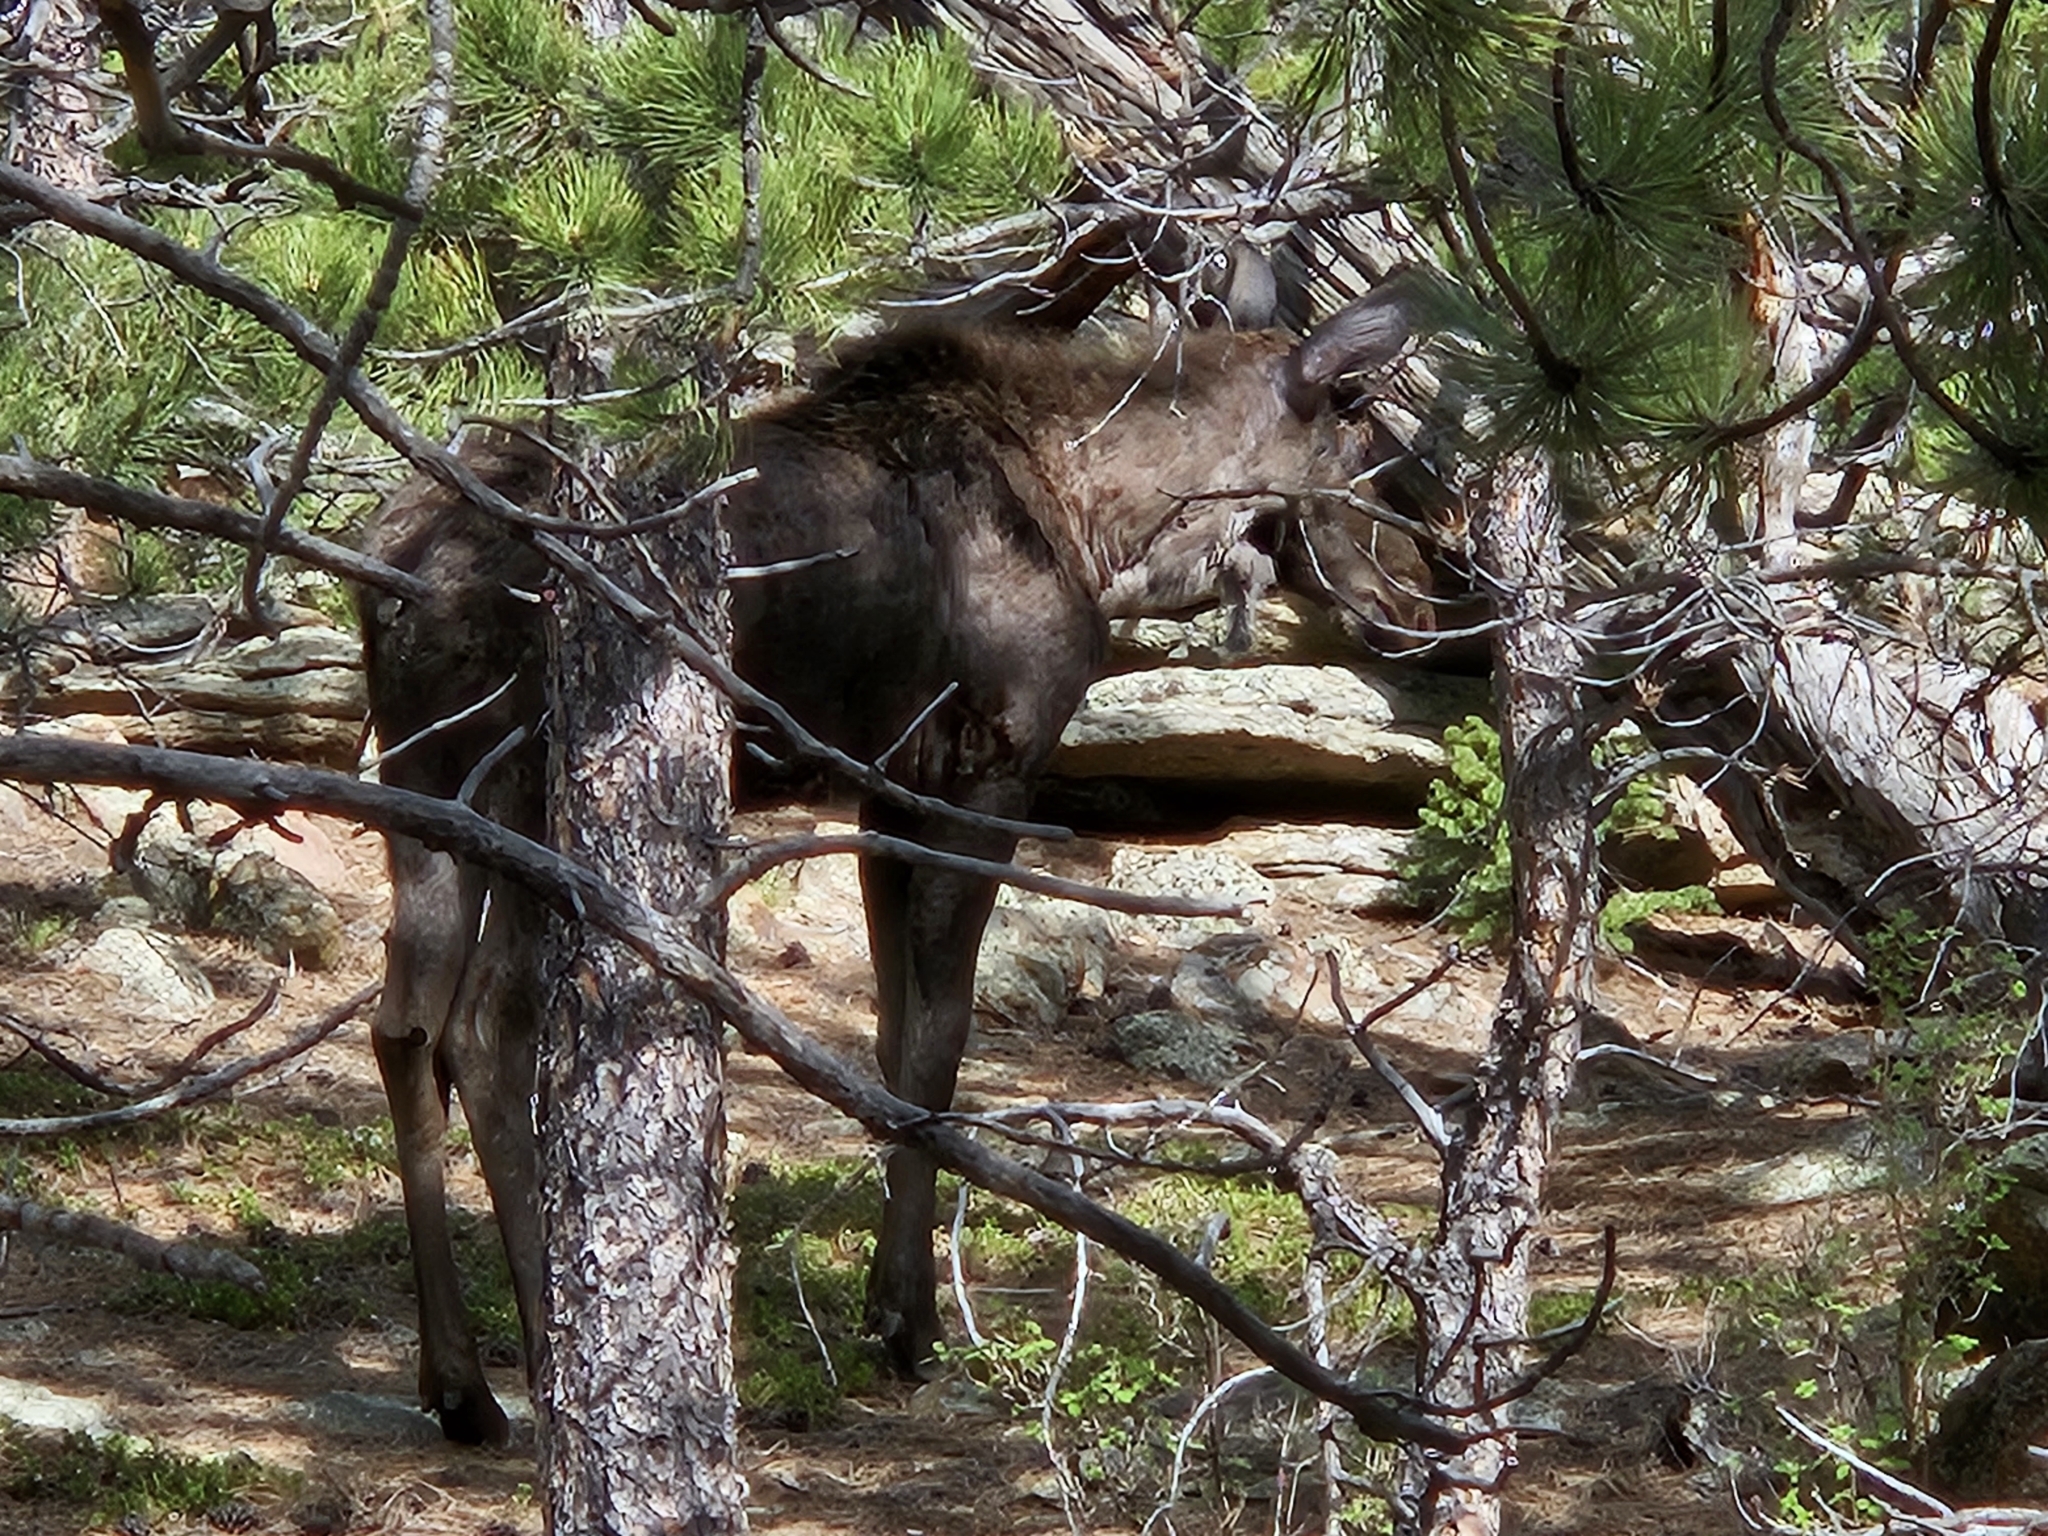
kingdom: Animalia
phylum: Chordata
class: Mammalia
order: Artiodactyla
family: Cervidae
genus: Alces
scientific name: Alces alces
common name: Moose
